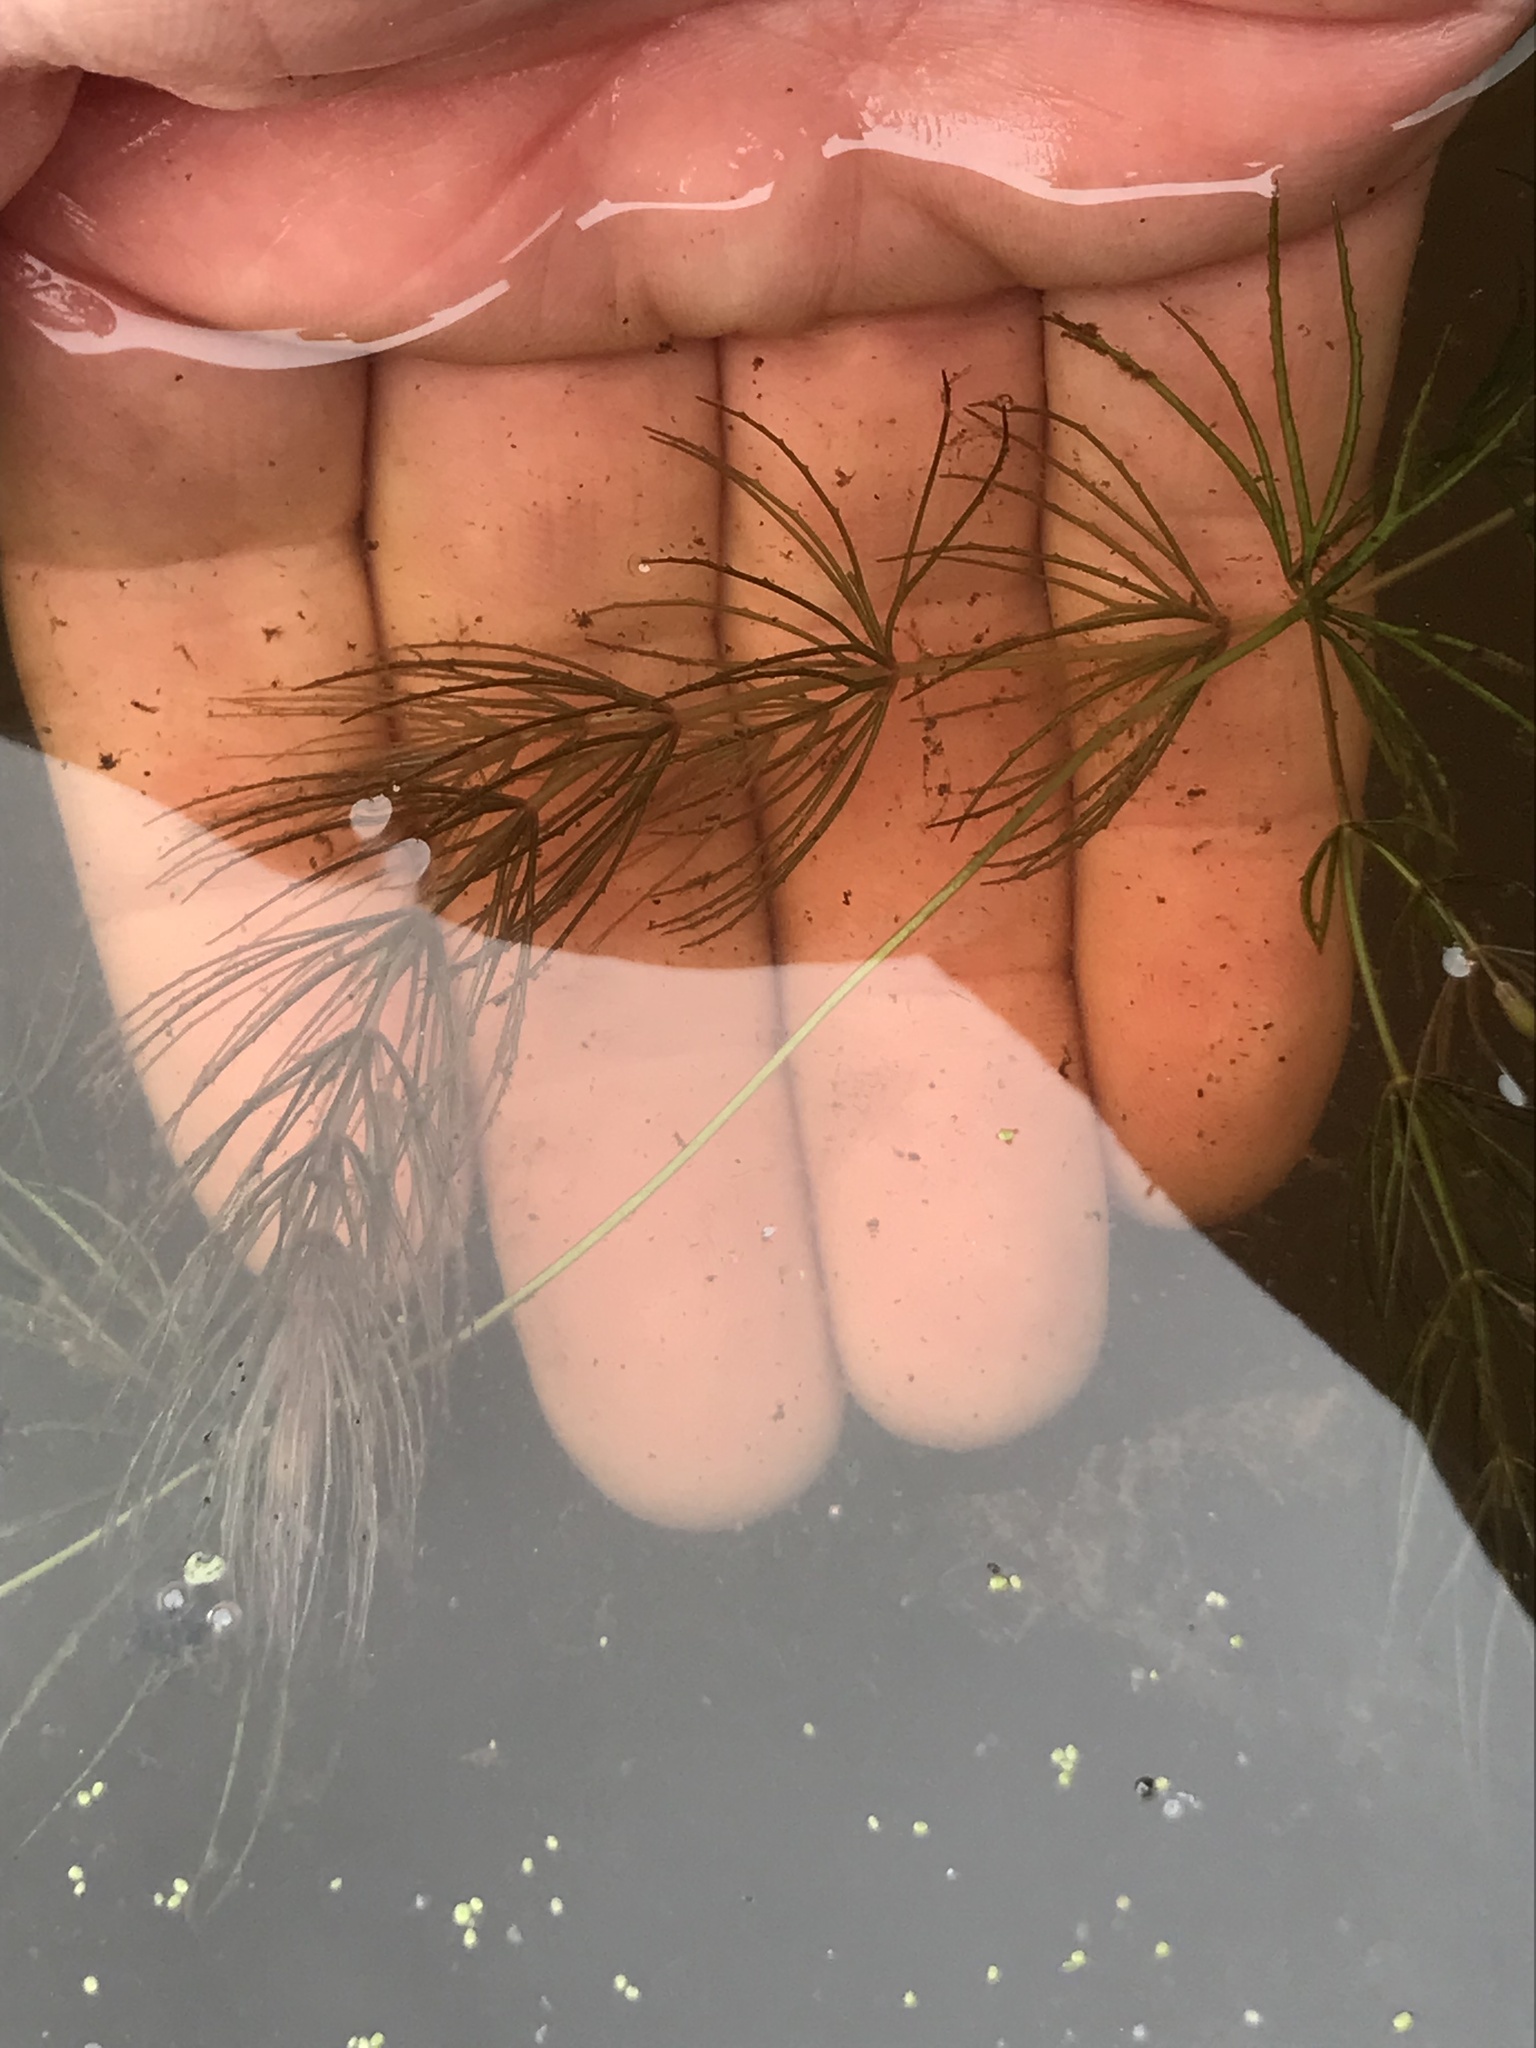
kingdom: Plantae
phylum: Tracheophyta
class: Magnoliopsida
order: Ceratophyllales
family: Ceratophyllaceae
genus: Ceratophyllum
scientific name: Ceratophyllum demersum
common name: Rigid hornwort
